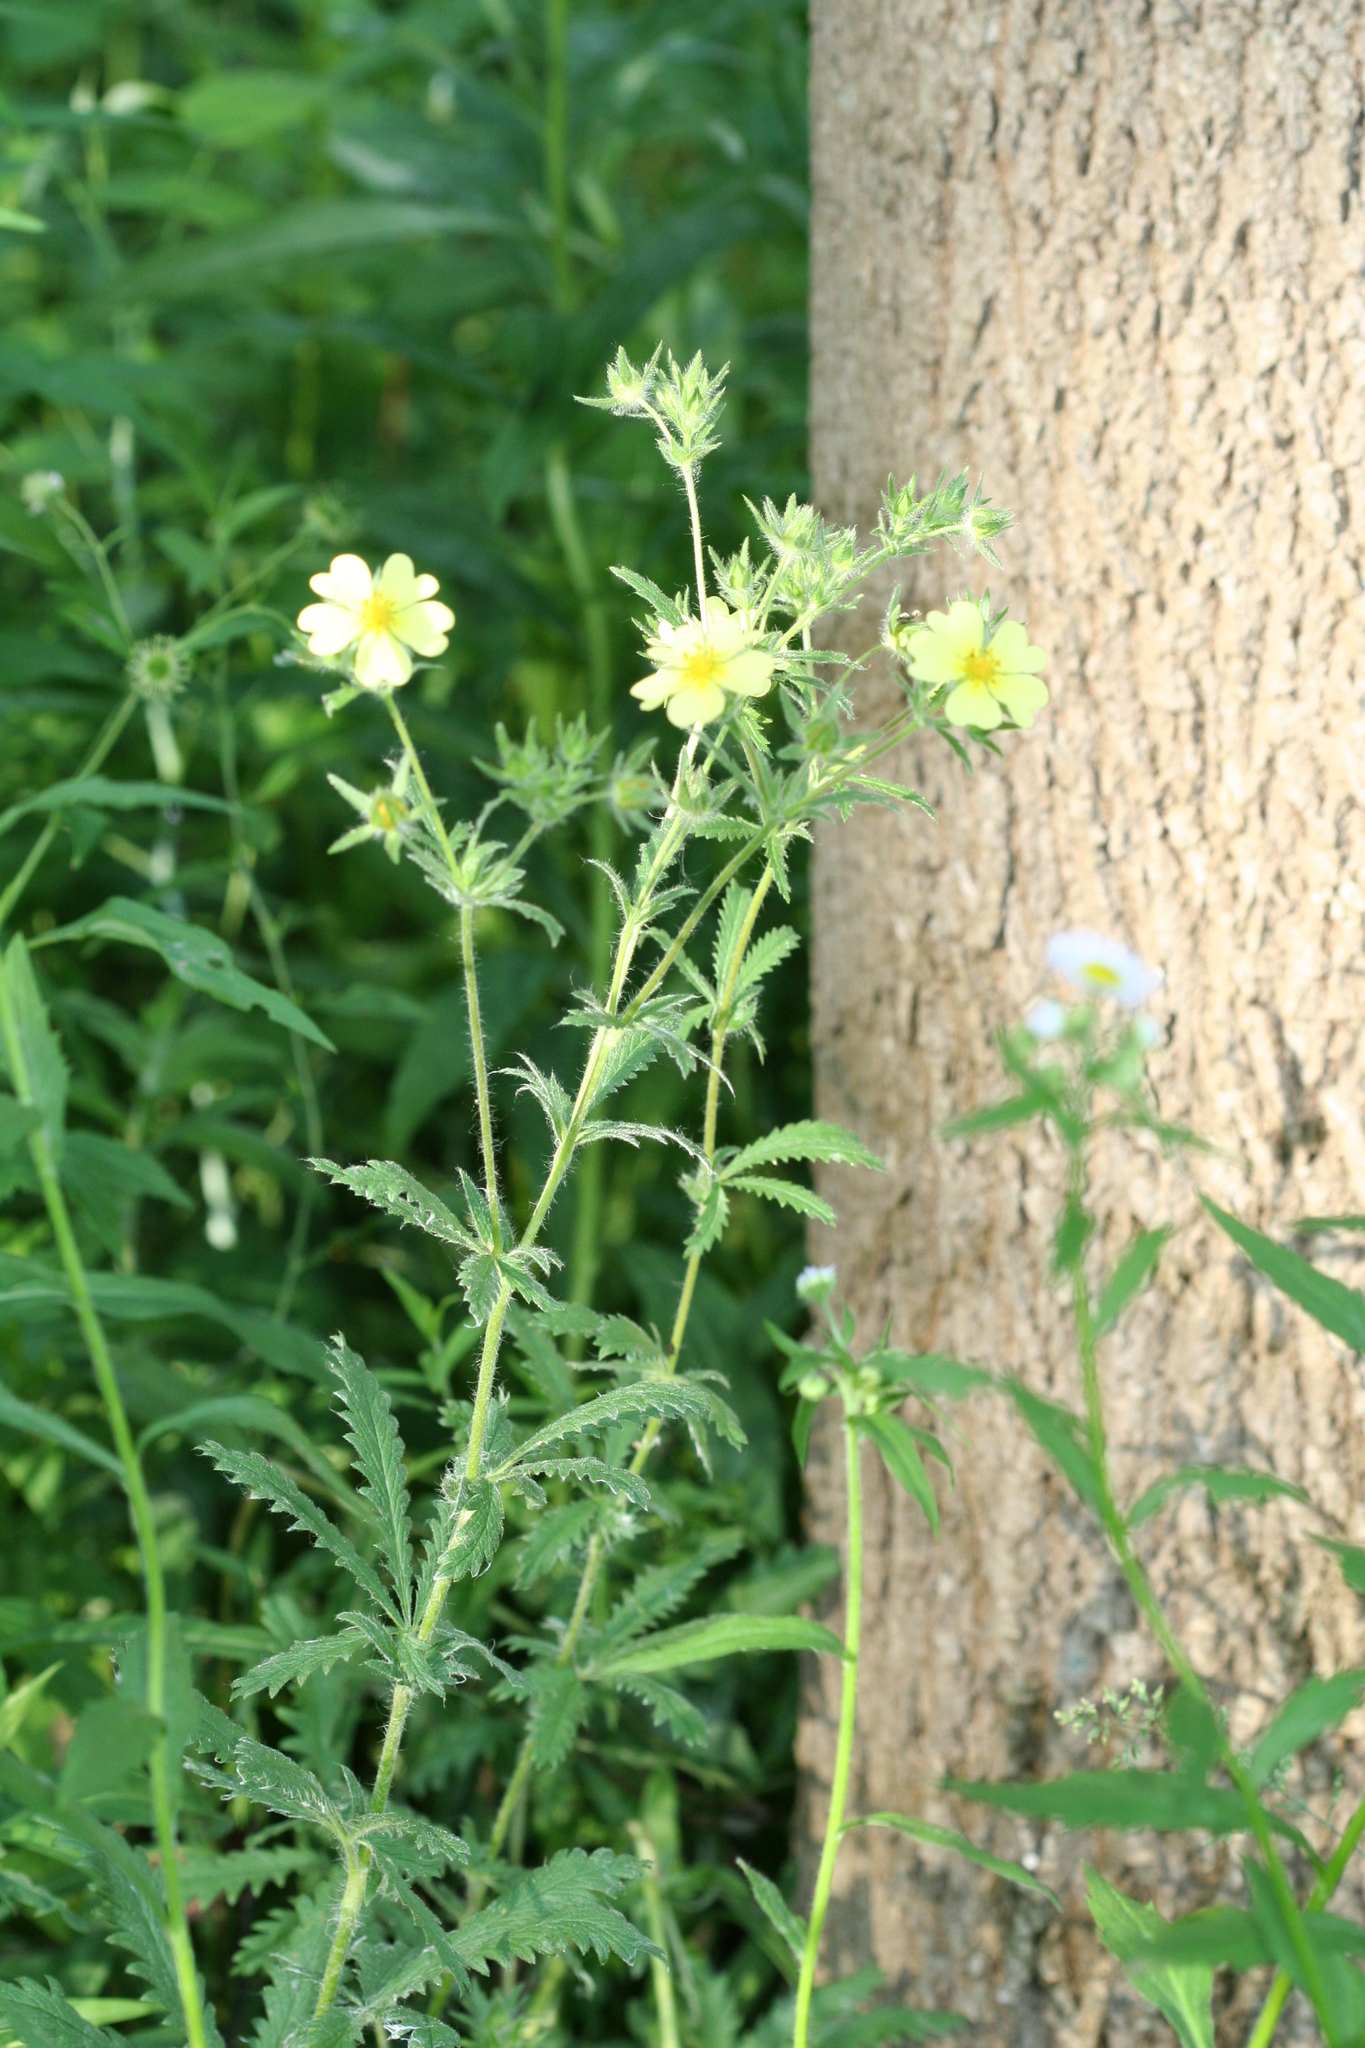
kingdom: Plantae
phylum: Tracheophyta
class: Magnoliopsida
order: Rosales
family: Rosaceae
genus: Potentilla
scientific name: Potentilla recta
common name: Sulphur cinquefoil
